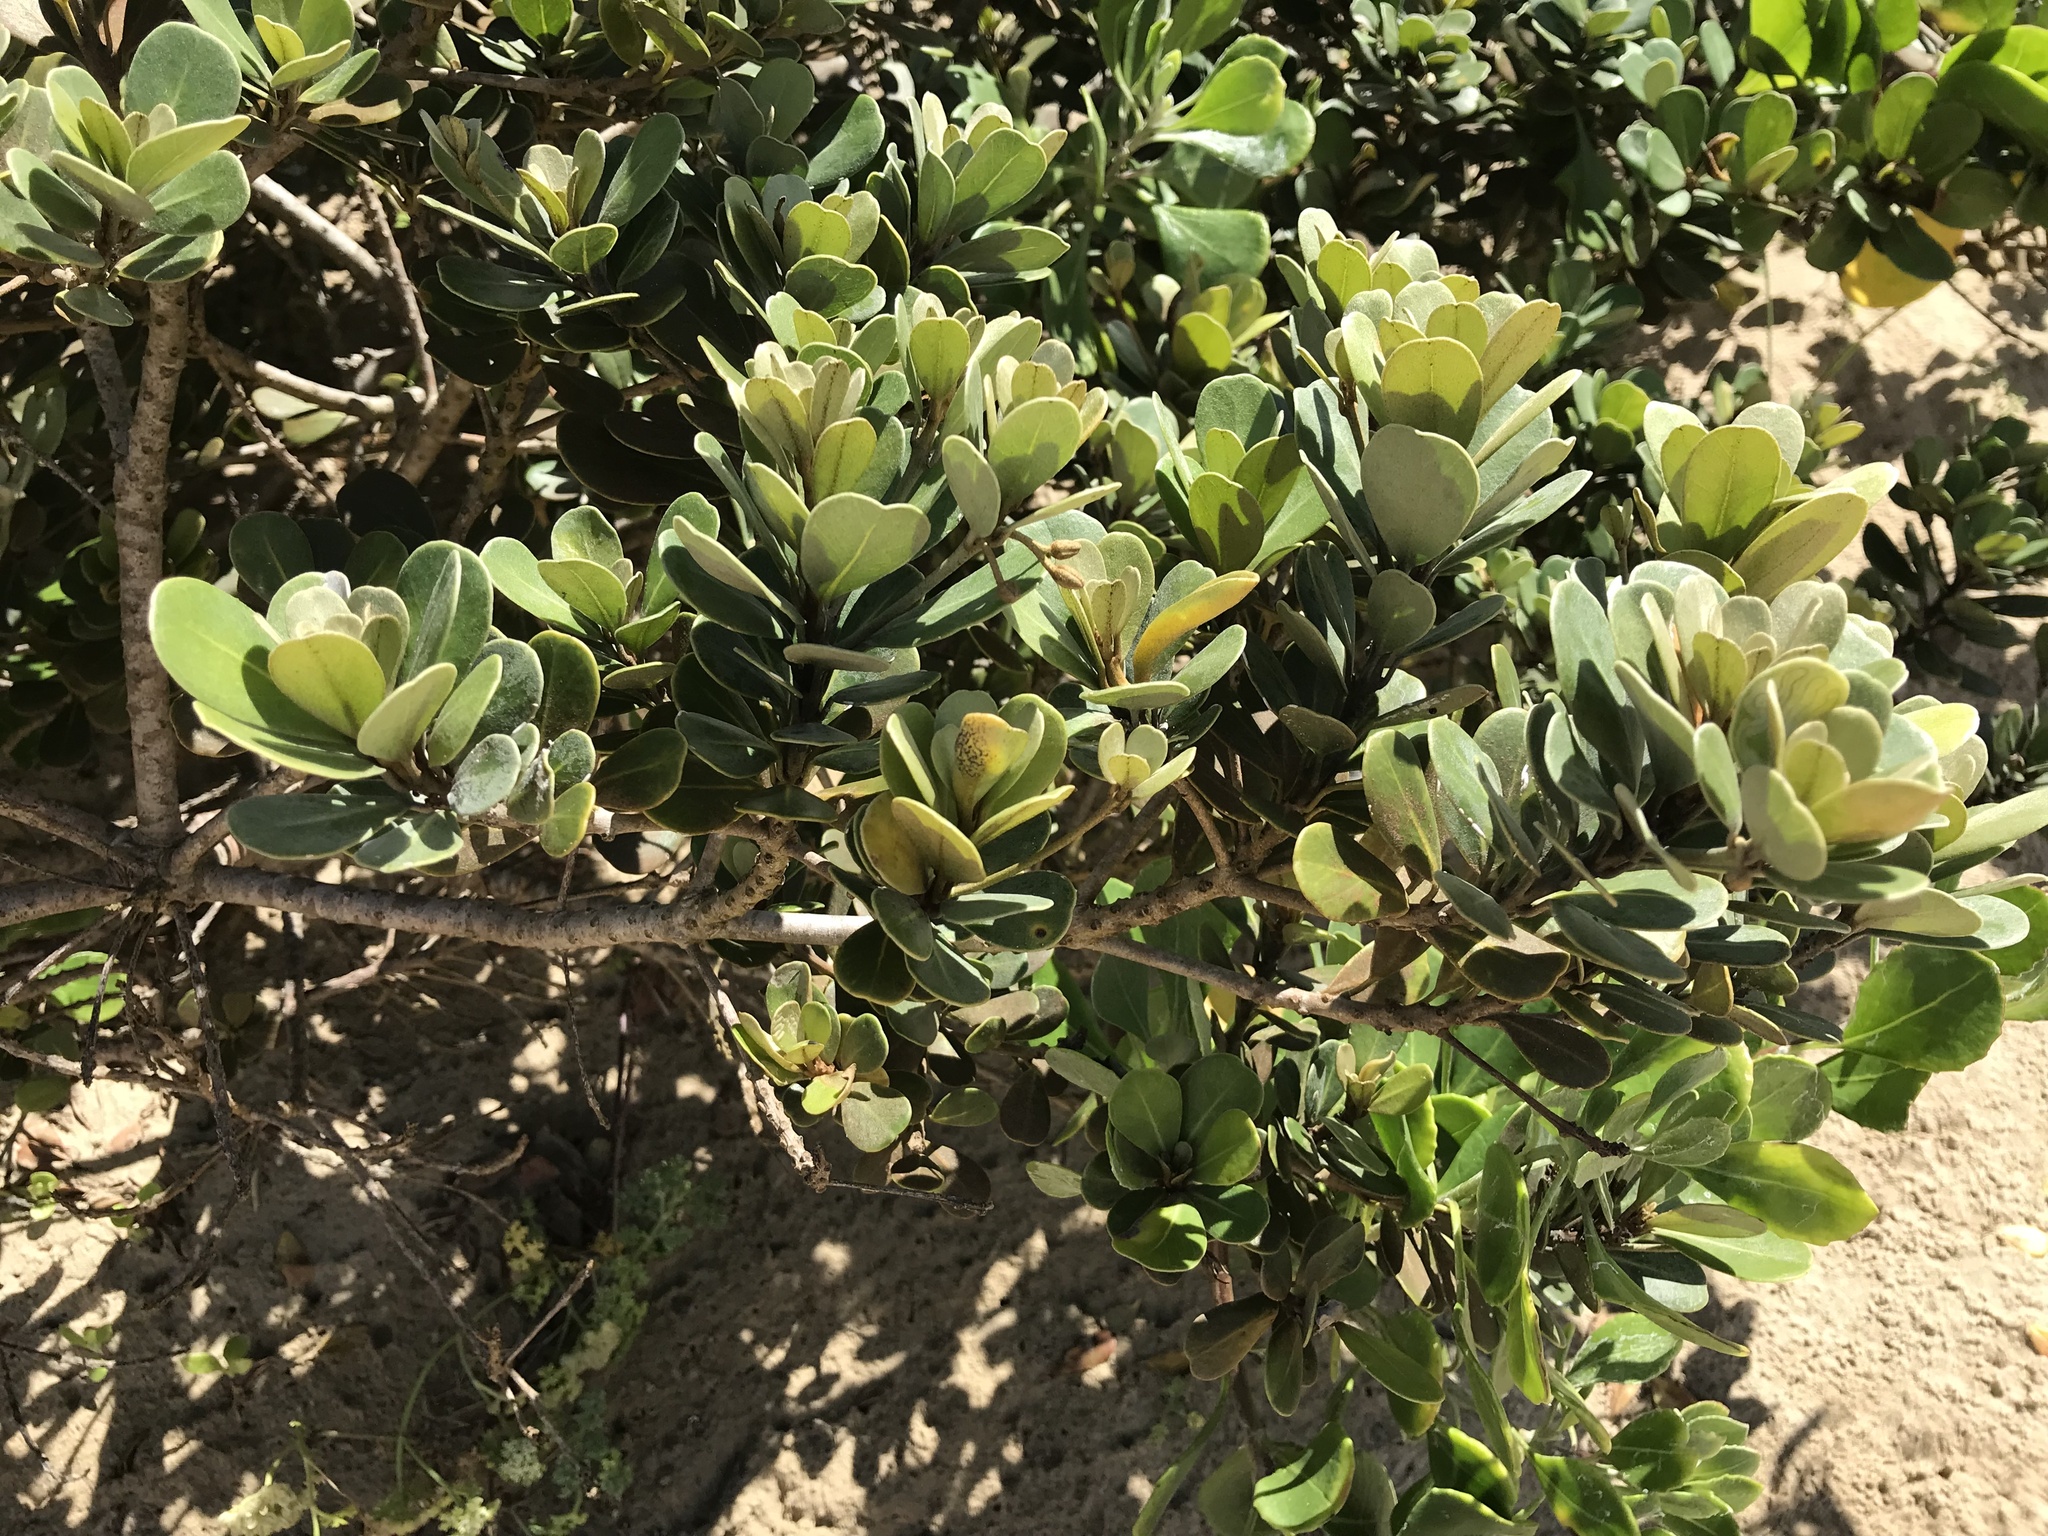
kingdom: Plantae
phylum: Tracheophyta
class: Magnoliopsida
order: Ericales
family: Sapotaceae
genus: Mimusops
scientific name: Mimusops caffra
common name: Coastal red milkwood
